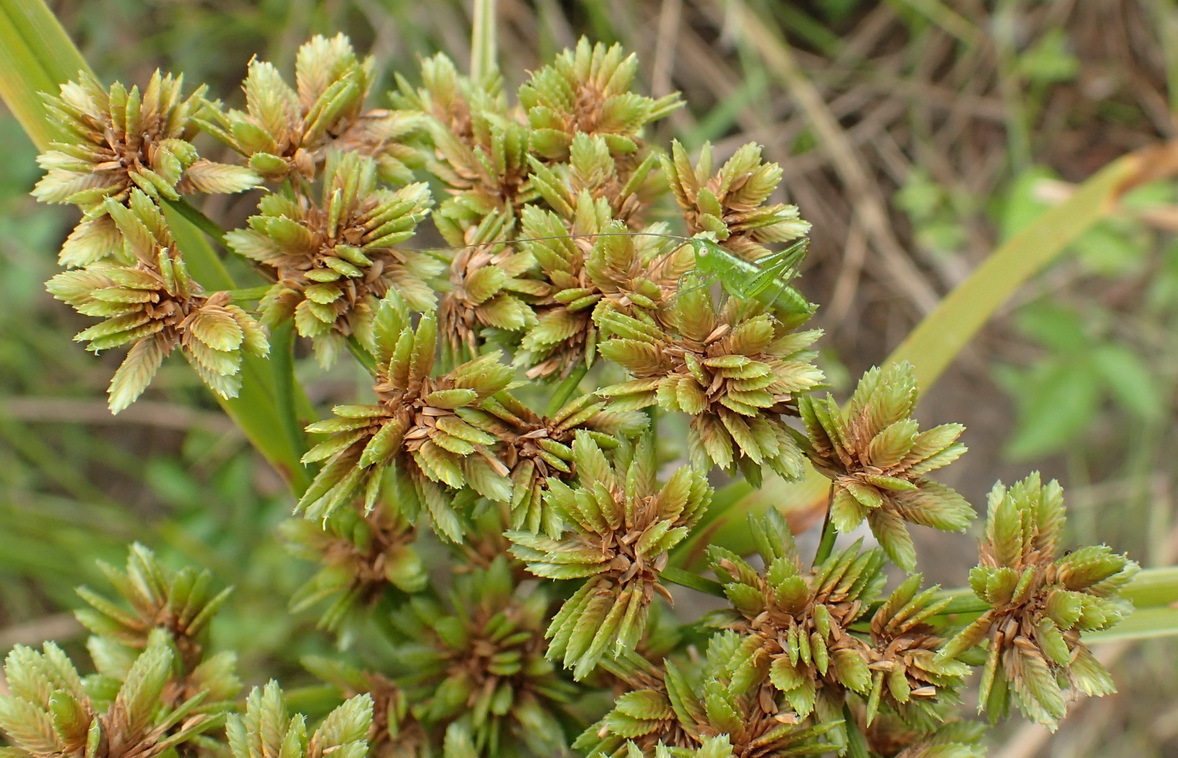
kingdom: Plantae
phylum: Tracheophyta
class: Liliopsida
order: Poales
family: Cyperaceae
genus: Cyperus
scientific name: Cyperus virens
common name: Green flatsedge
